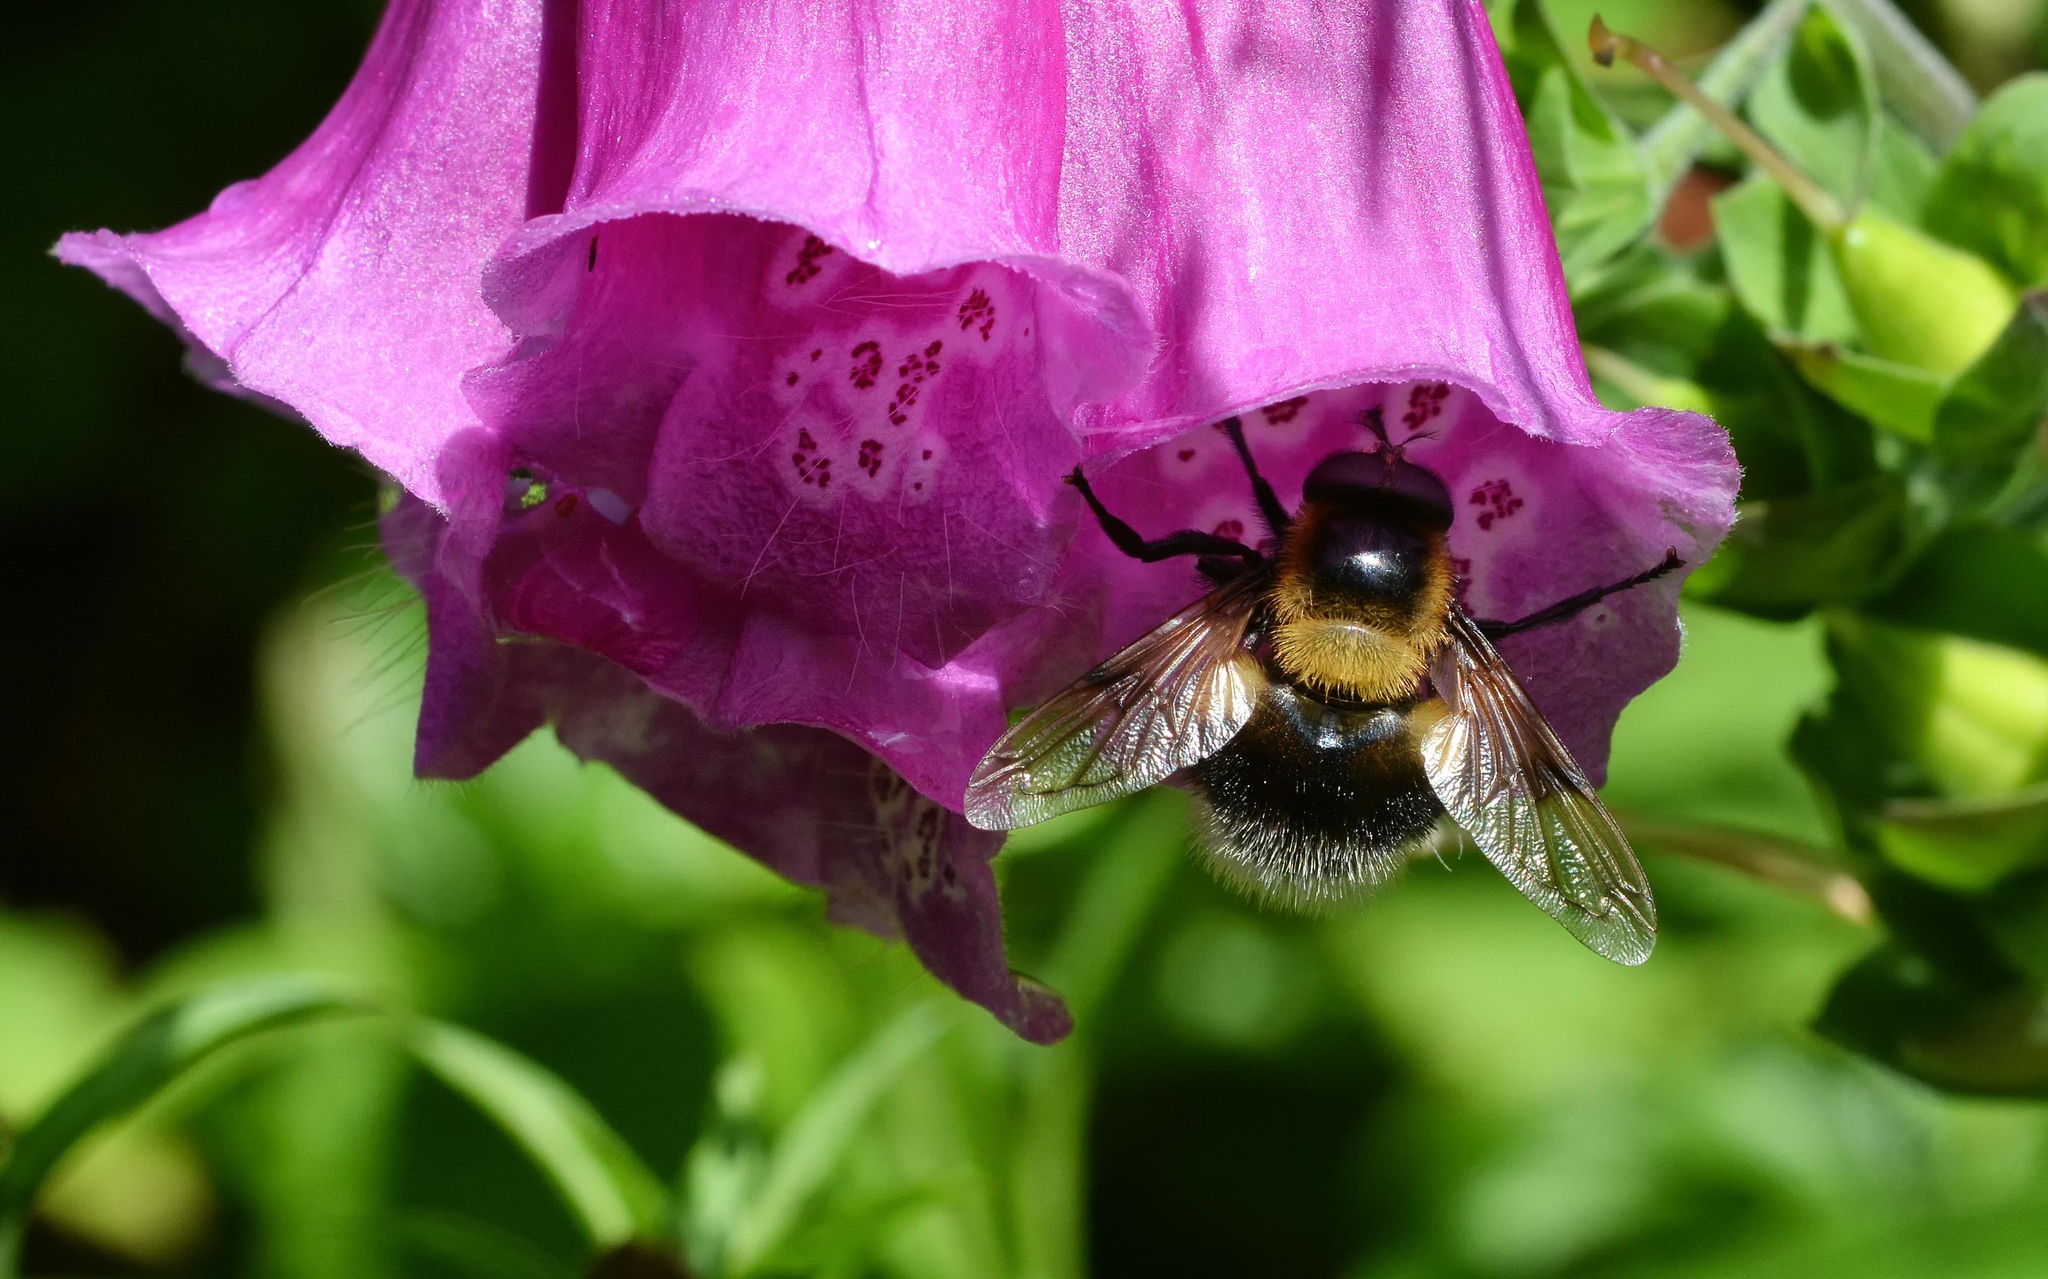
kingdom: Animalia
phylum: Arthropoda
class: Insecta
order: Diptera
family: Syrphidae
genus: Volucella
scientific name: Volucella bombylans
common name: Bumble bee hover fly
